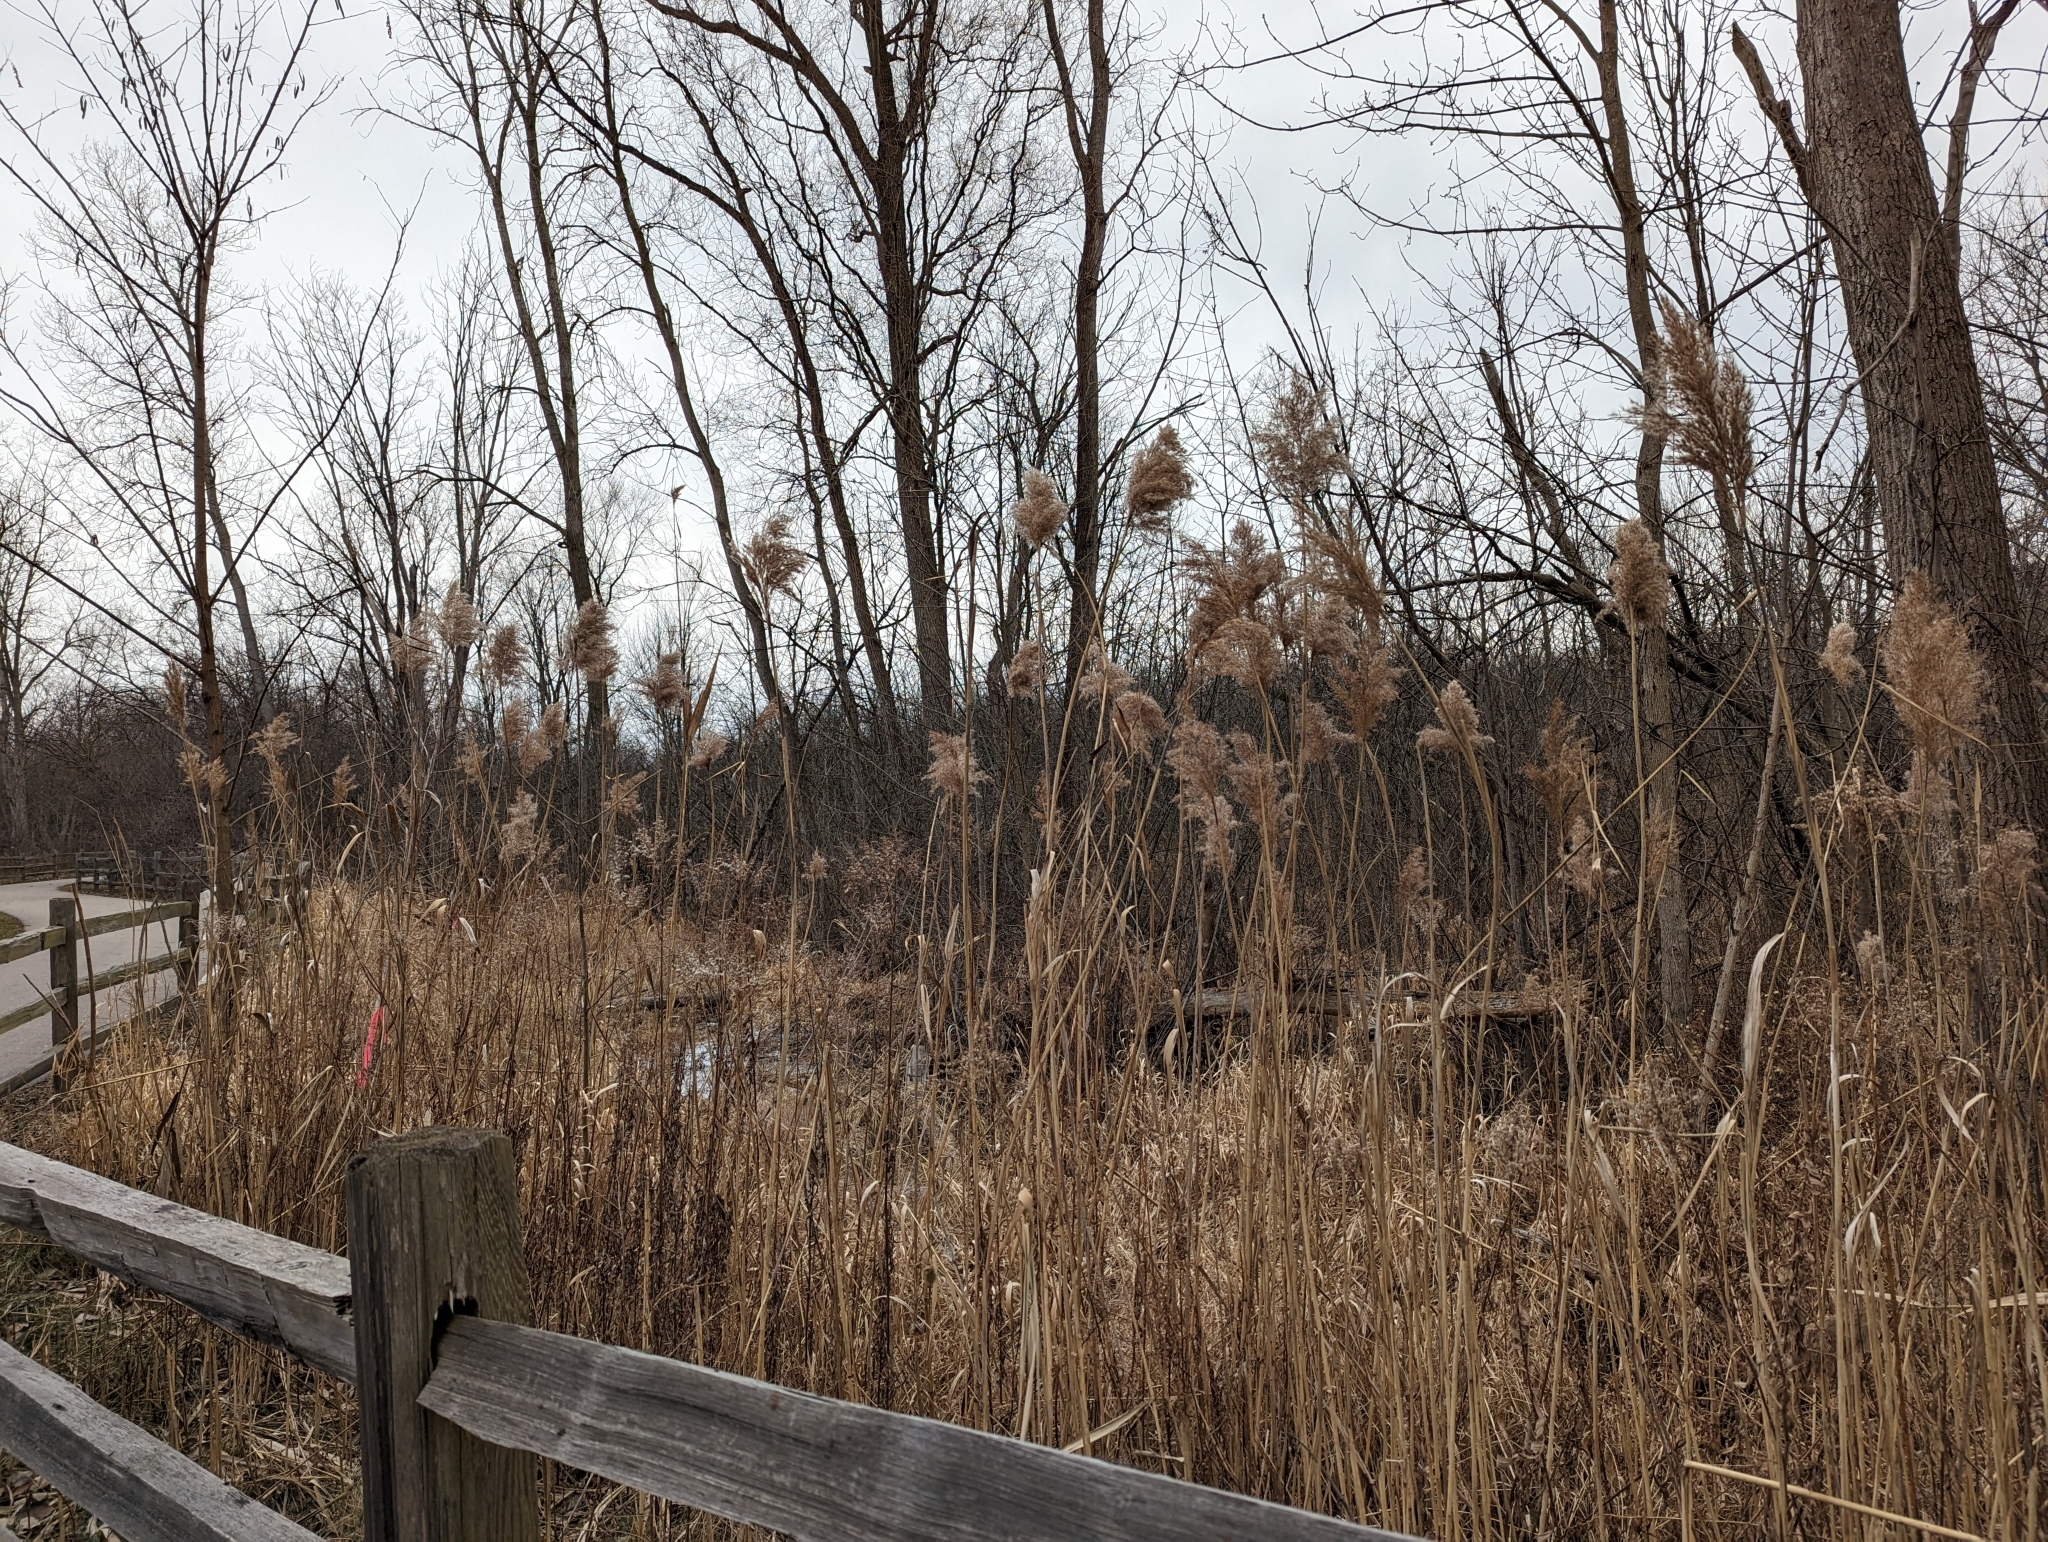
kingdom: Plantae
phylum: Tracheophyta
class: Liliopsida
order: Poales
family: Poaceae
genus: Phragmites
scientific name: Phragmites australis
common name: Common reed
